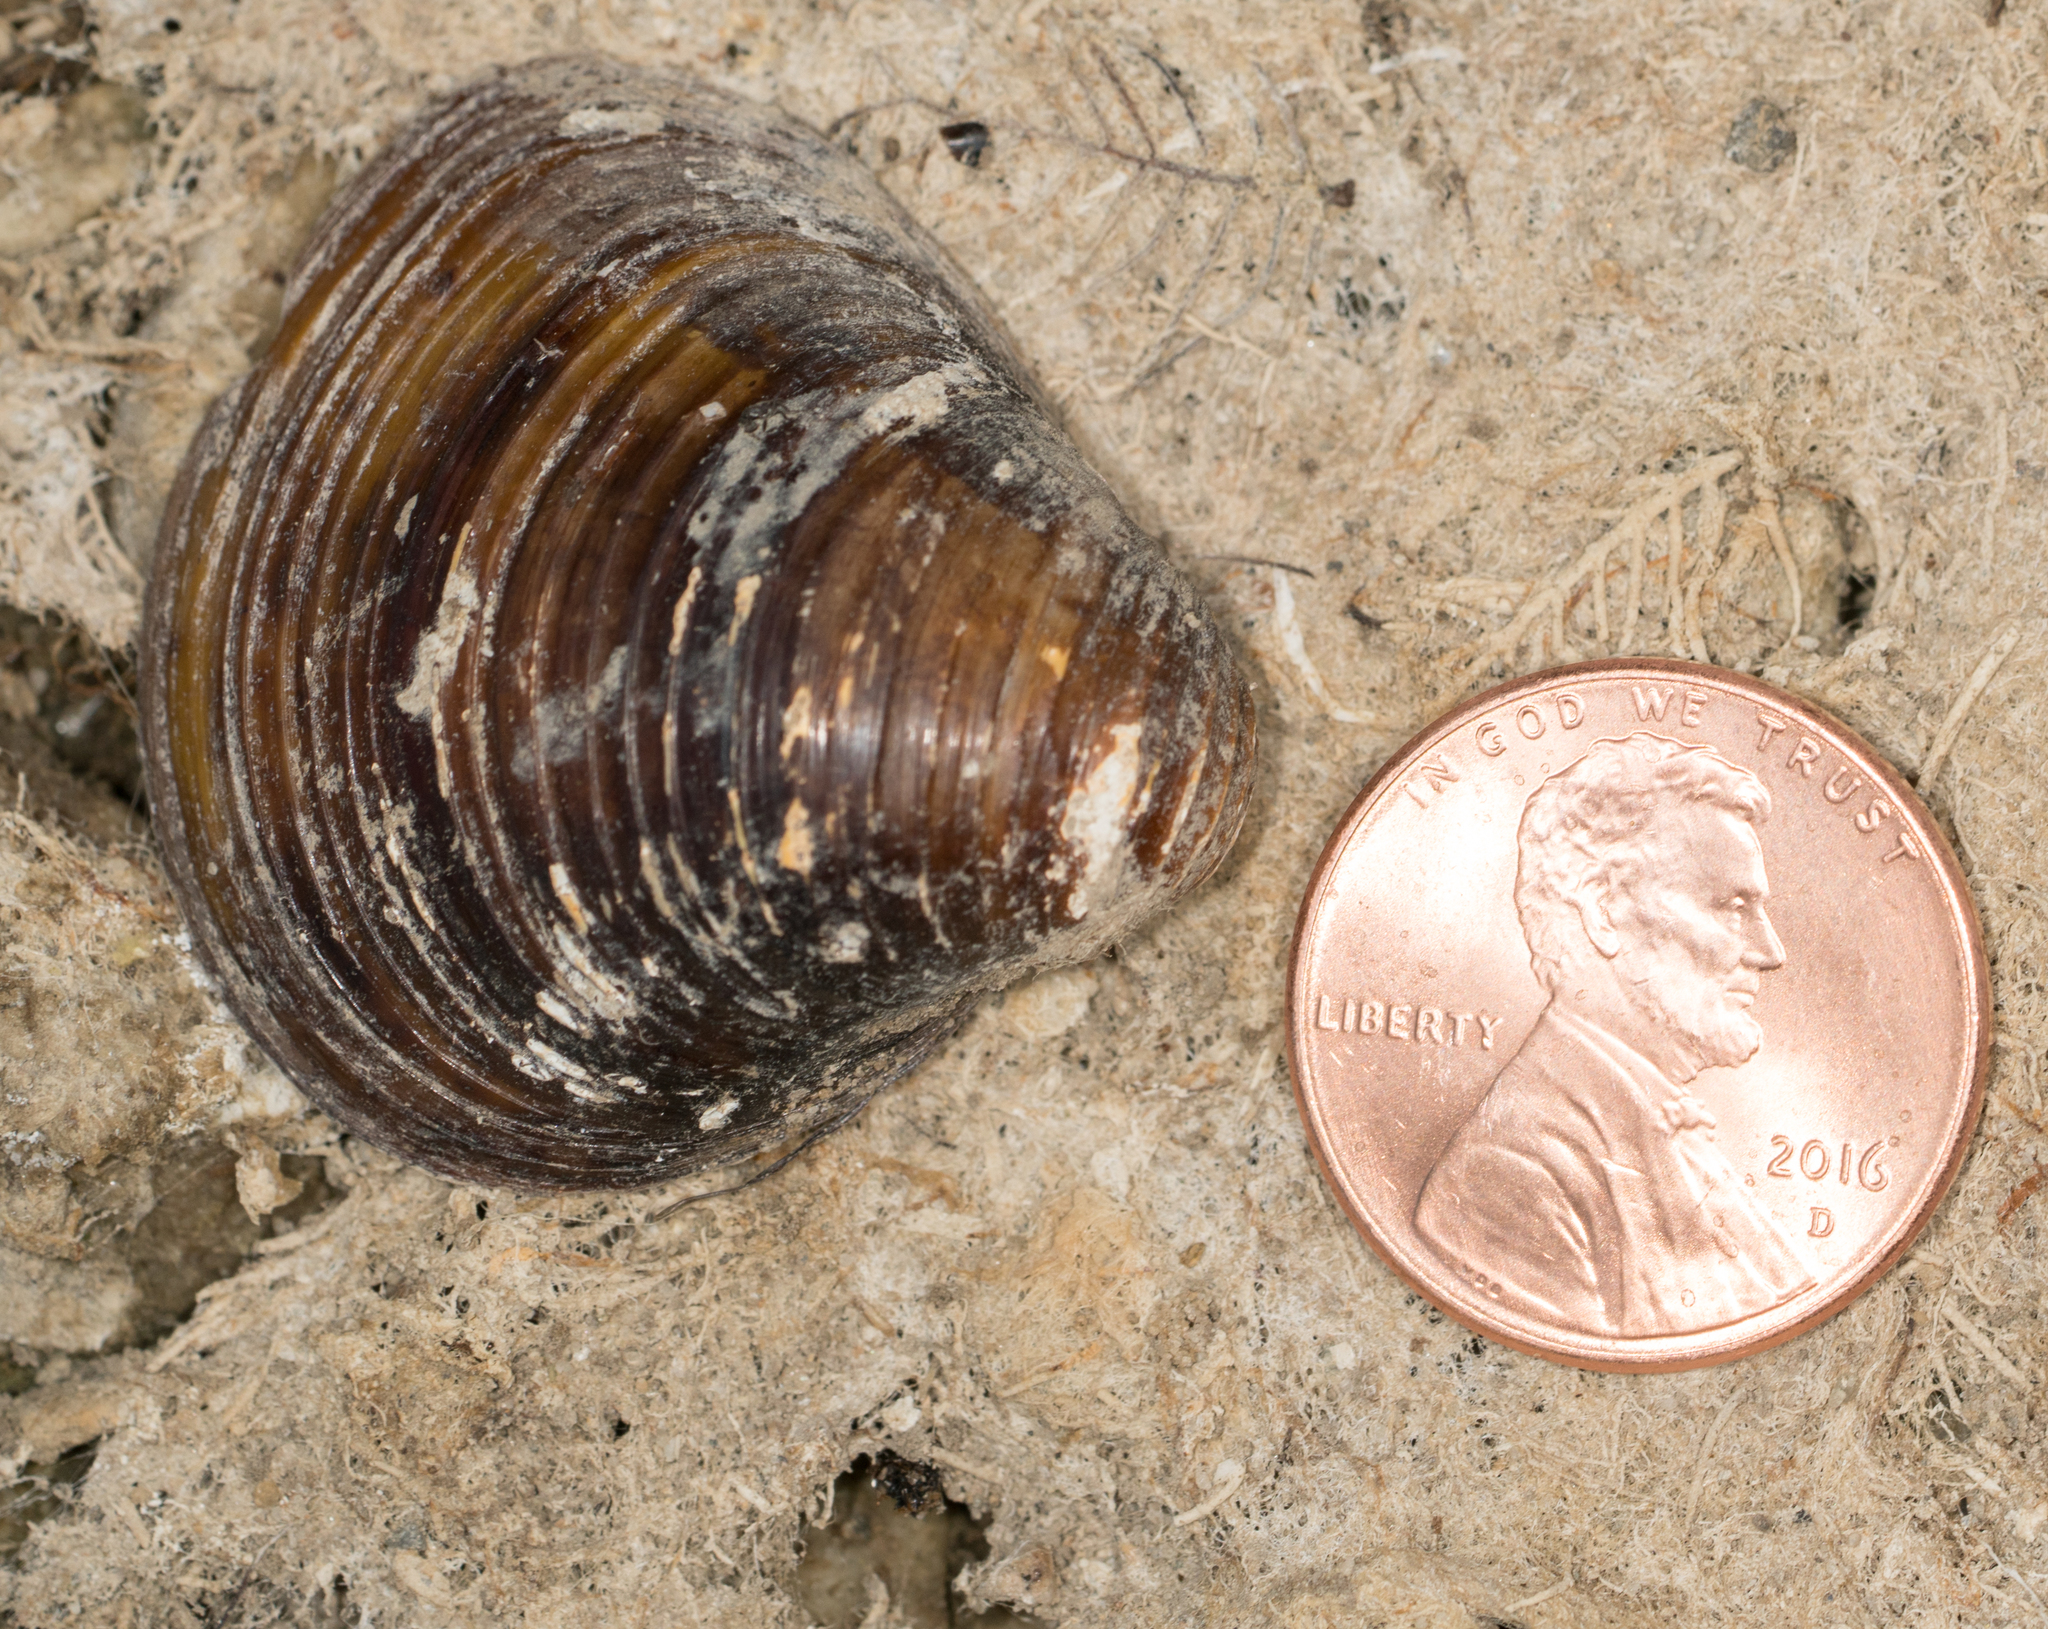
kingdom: Animalia
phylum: Mollusca
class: Bivalvia
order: Venerida
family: Cyrenidae
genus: Corbicula
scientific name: Corbicula fluminea
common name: Asian clam
